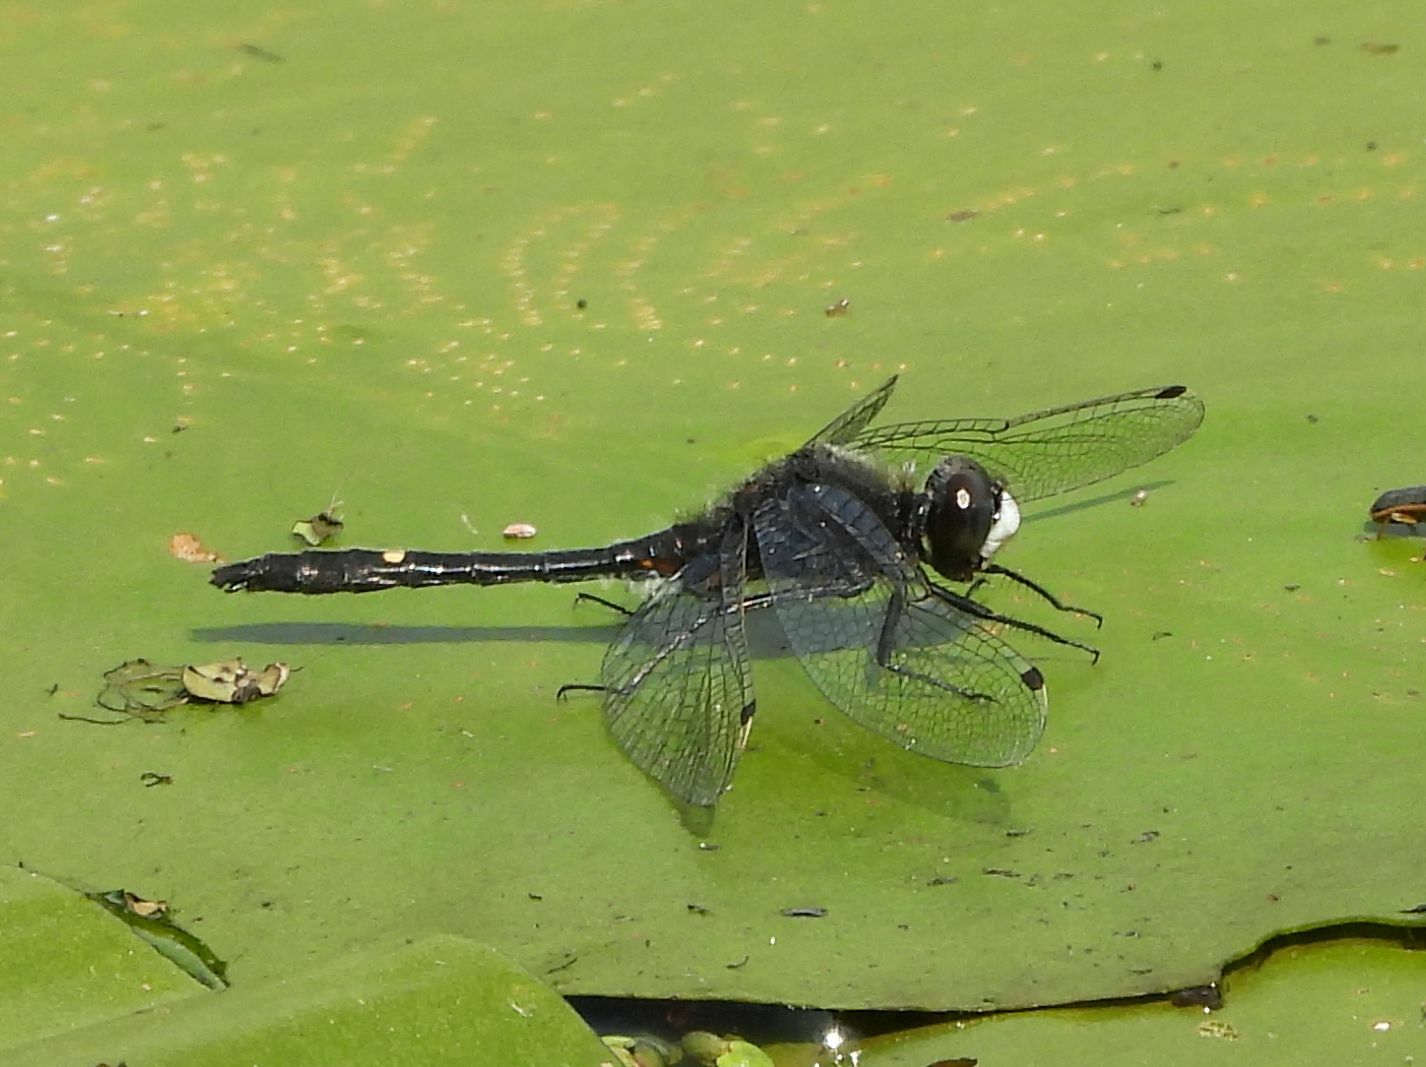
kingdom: Animalia
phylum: Arthropoda
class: Insecta
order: Odonata
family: Libellulidae
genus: Leucorrhinia
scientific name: Leucorrhinia intacta
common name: Dot-tailed whiteface
